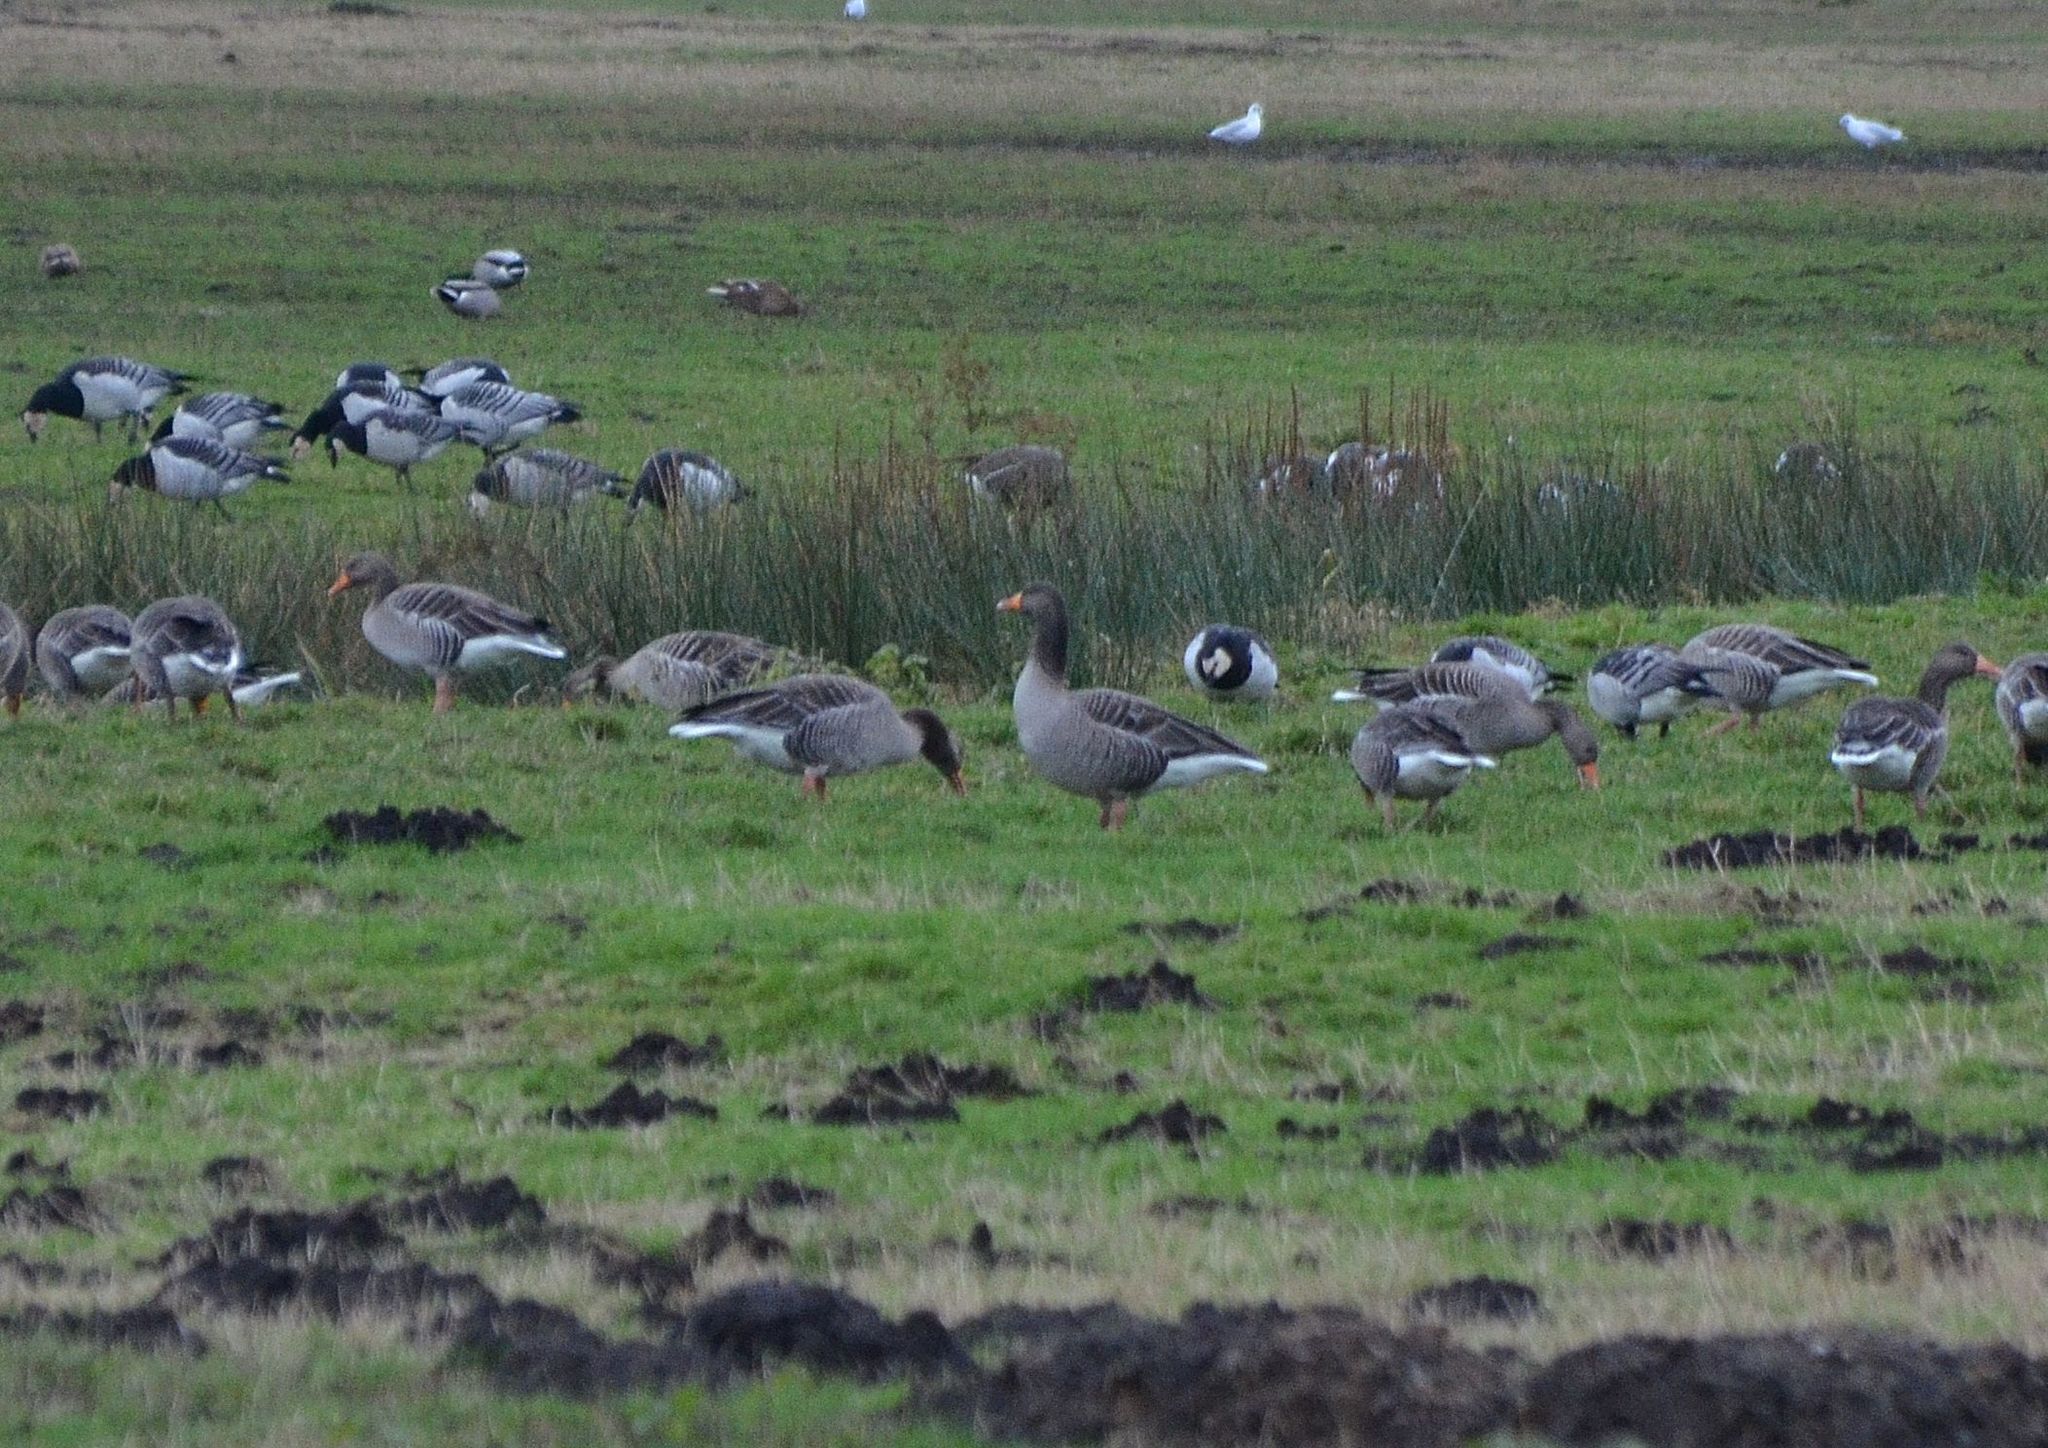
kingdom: Animalia
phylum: Chordata
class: Aves
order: Anseriformes
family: Anatidae
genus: Anser
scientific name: Anser anser
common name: Greylag goose
